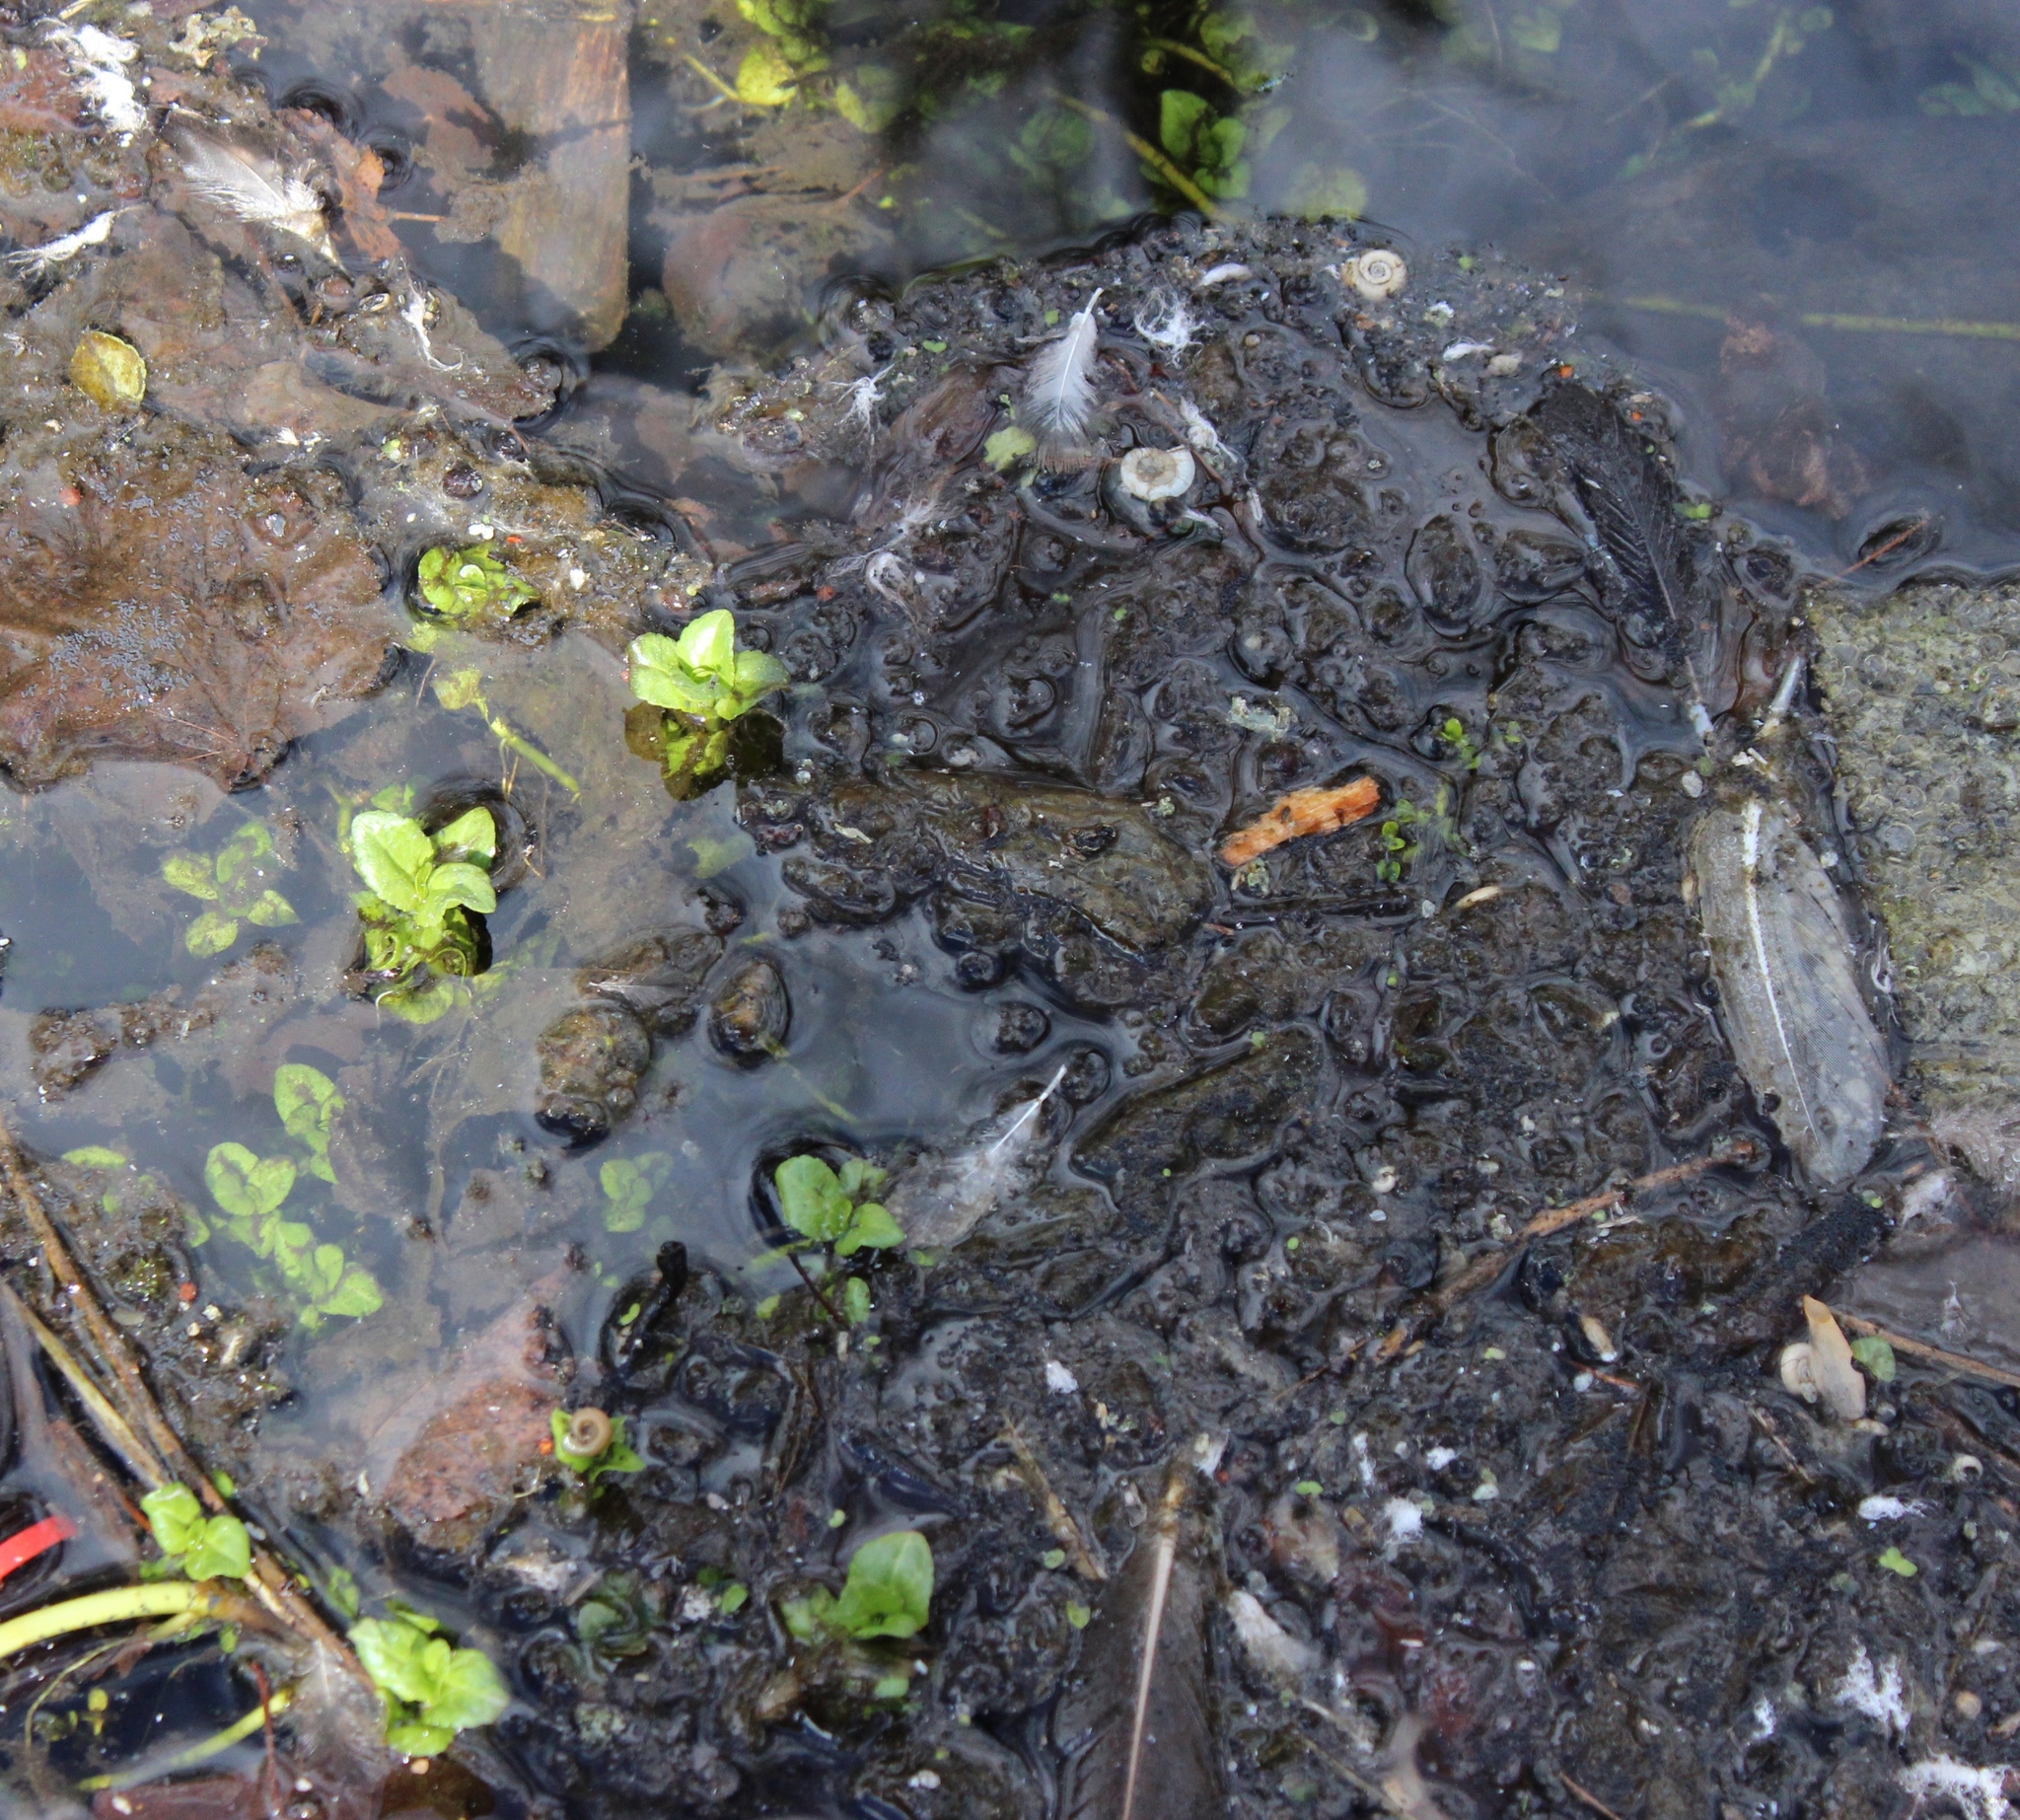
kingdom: Plantae
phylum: Tracheophyta
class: Magnoliopsida
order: Lamiales
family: Plantaginaceae
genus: Veronica
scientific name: Veronica beccabunga
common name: Brooklime
